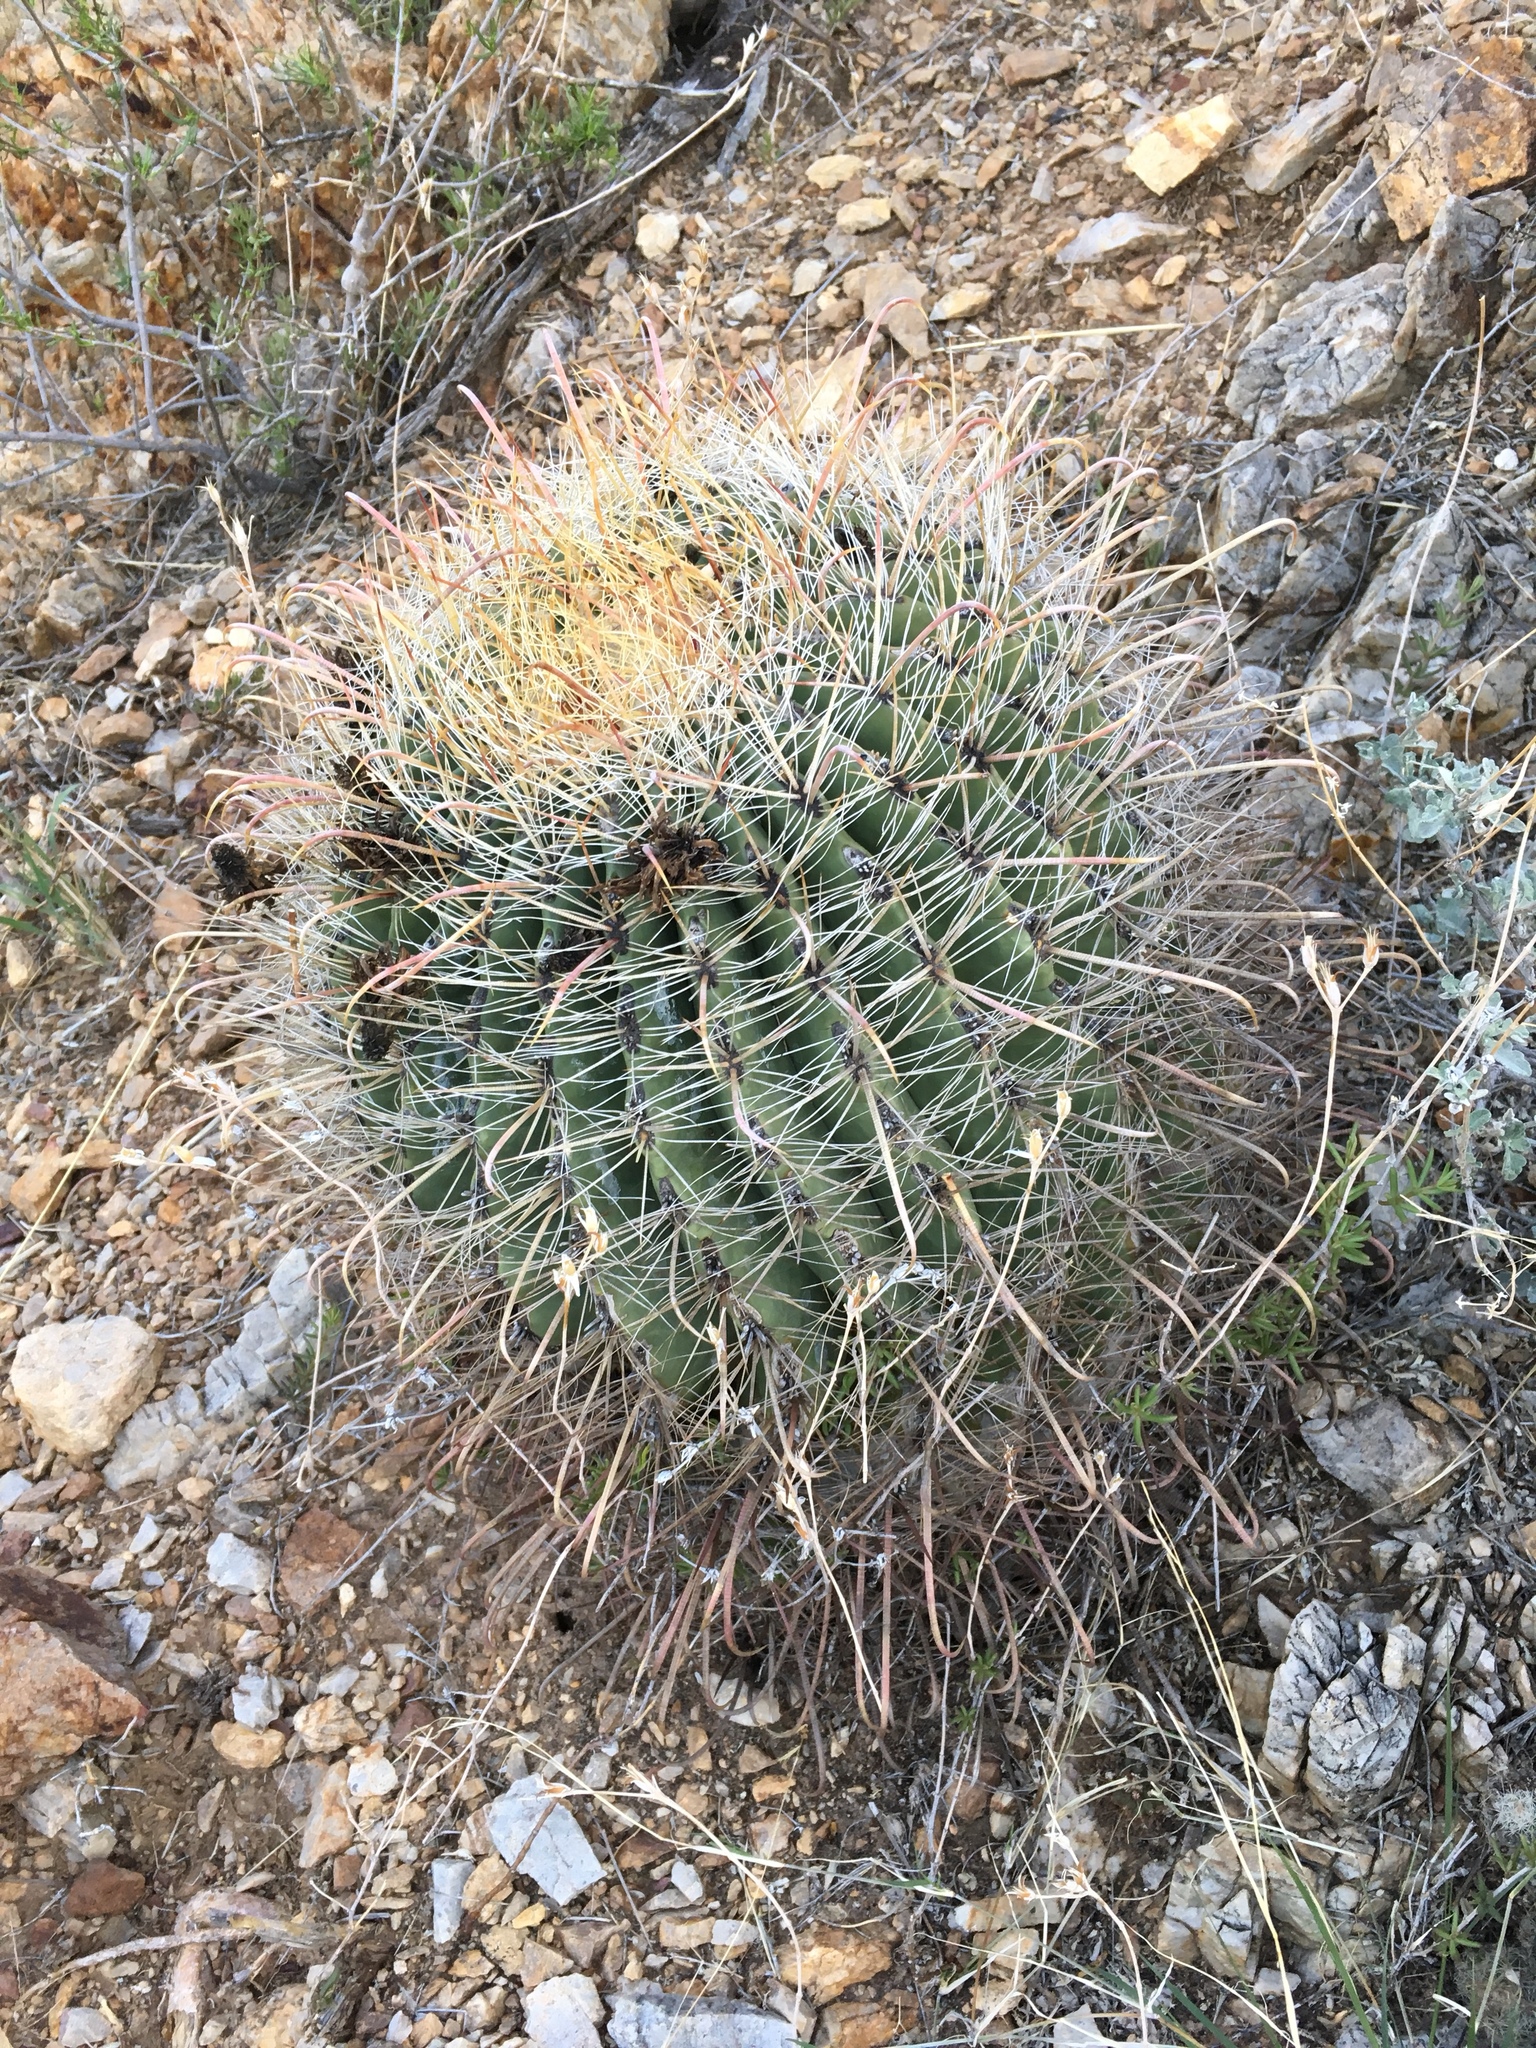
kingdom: Plantae
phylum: Tracheophyta
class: Magnoliopsida
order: Caryophyllales
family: Cactaceae
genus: Ferocactus
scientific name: Ferocactus wislizeni
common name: Candy barrel cactus
